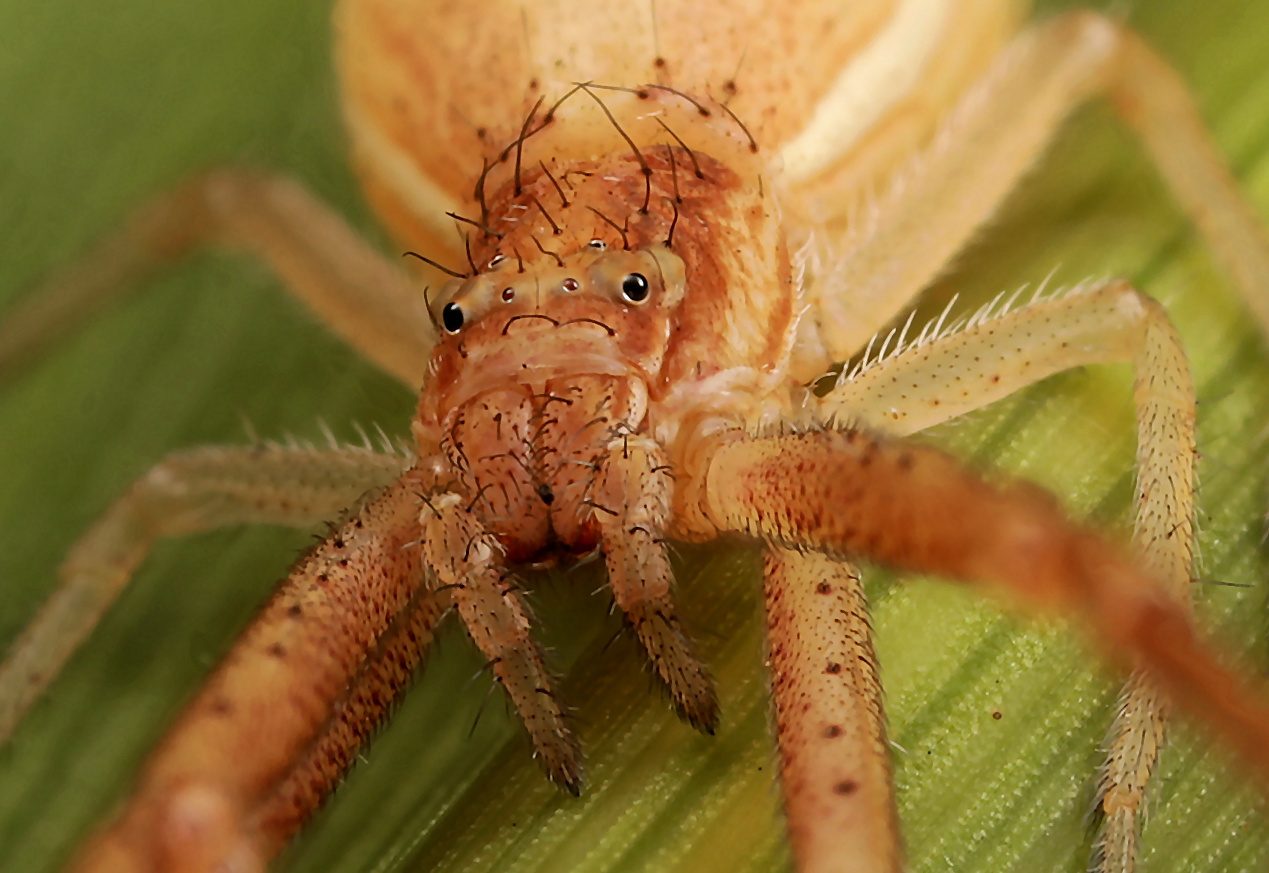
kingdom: Animalia
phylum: Arthropoda
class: Arachnida
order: Araneae
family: Thomisidae
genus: Monaeses
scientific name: Monaeses paradoxus
